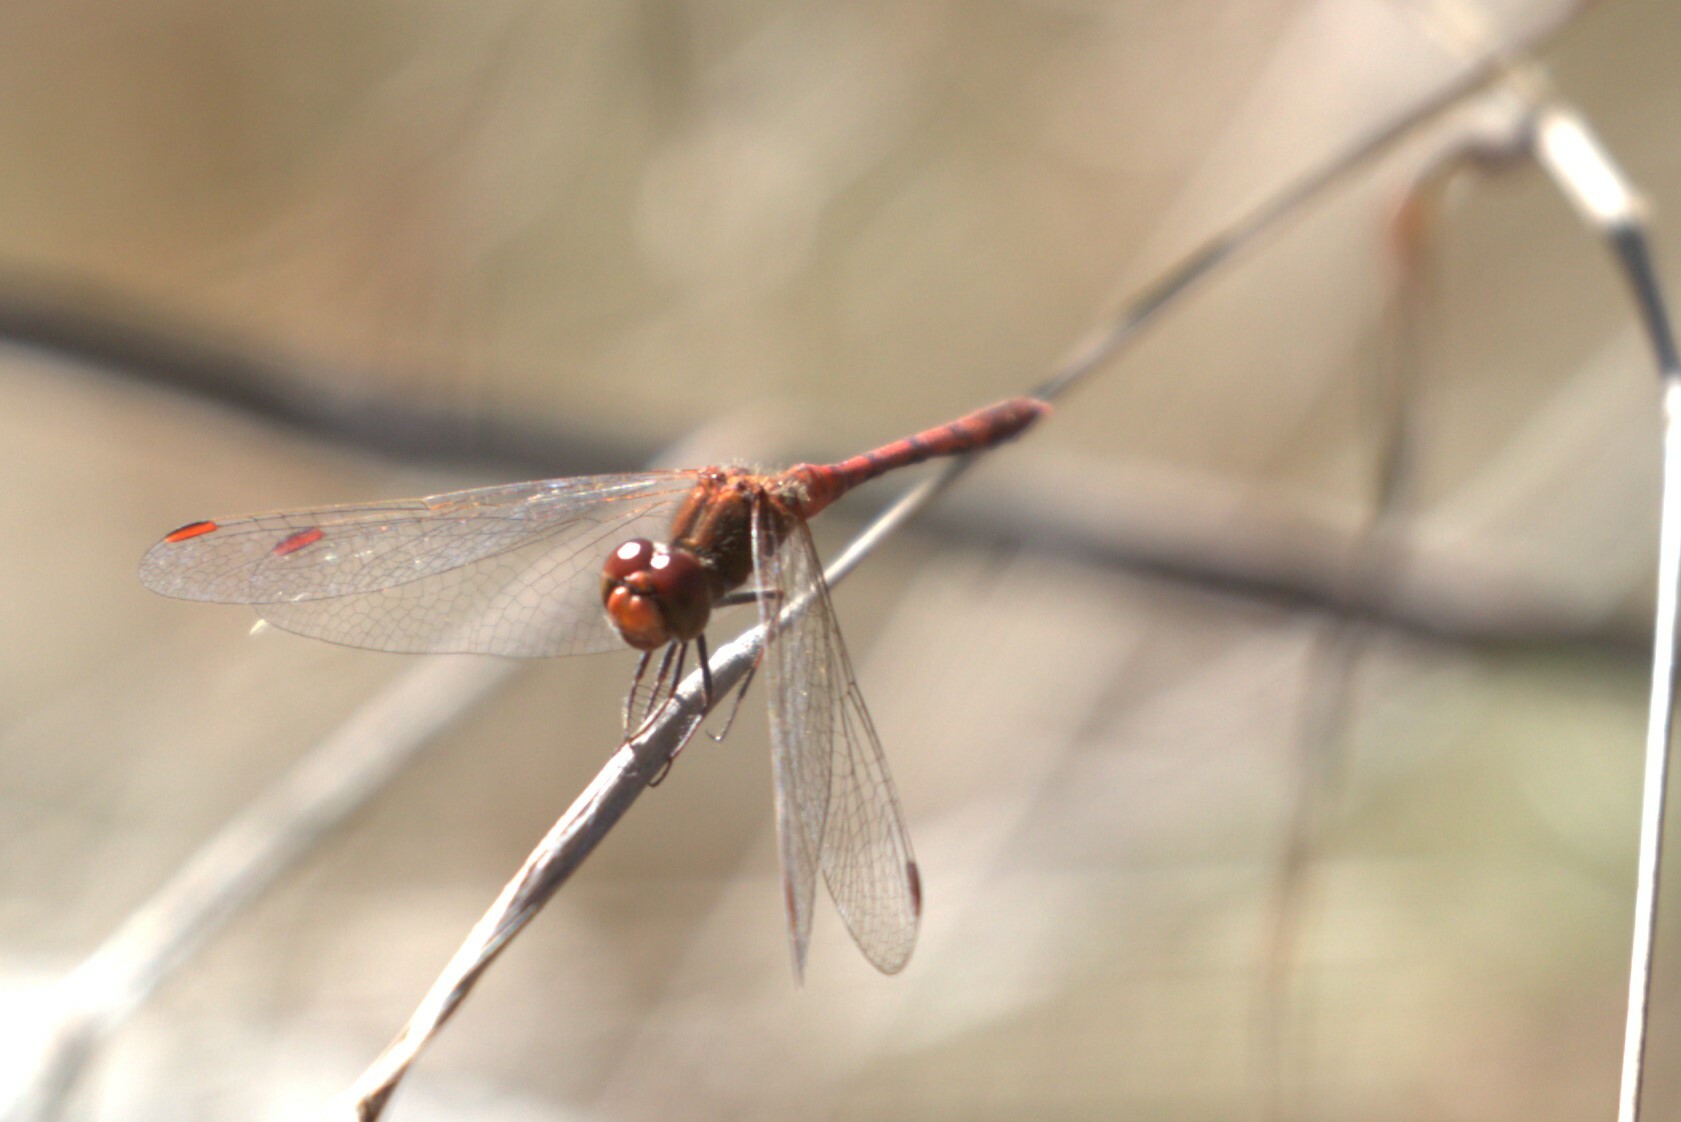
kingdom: Animalia
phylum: Arthropoda
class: Insecta
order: Odonata
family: Libellulidae
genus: Diplacodes
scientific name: Diplacodes bipunctata
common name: Red percher dragonfly
